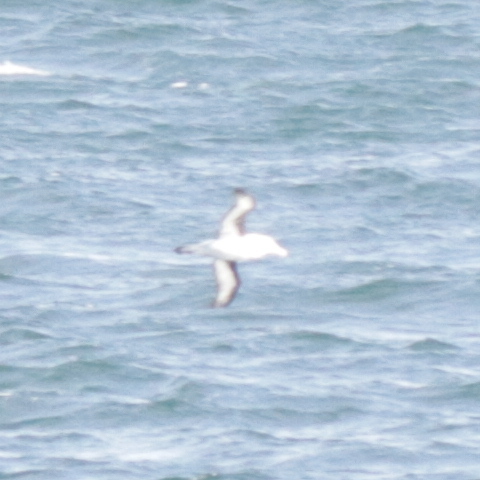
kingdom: Animalia
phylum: Chordata
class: Aves
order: Procellariiformes
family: Diomedeidae
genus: Thalassarche
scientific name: Thalassarche melanophris
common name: Black-browed albatross
